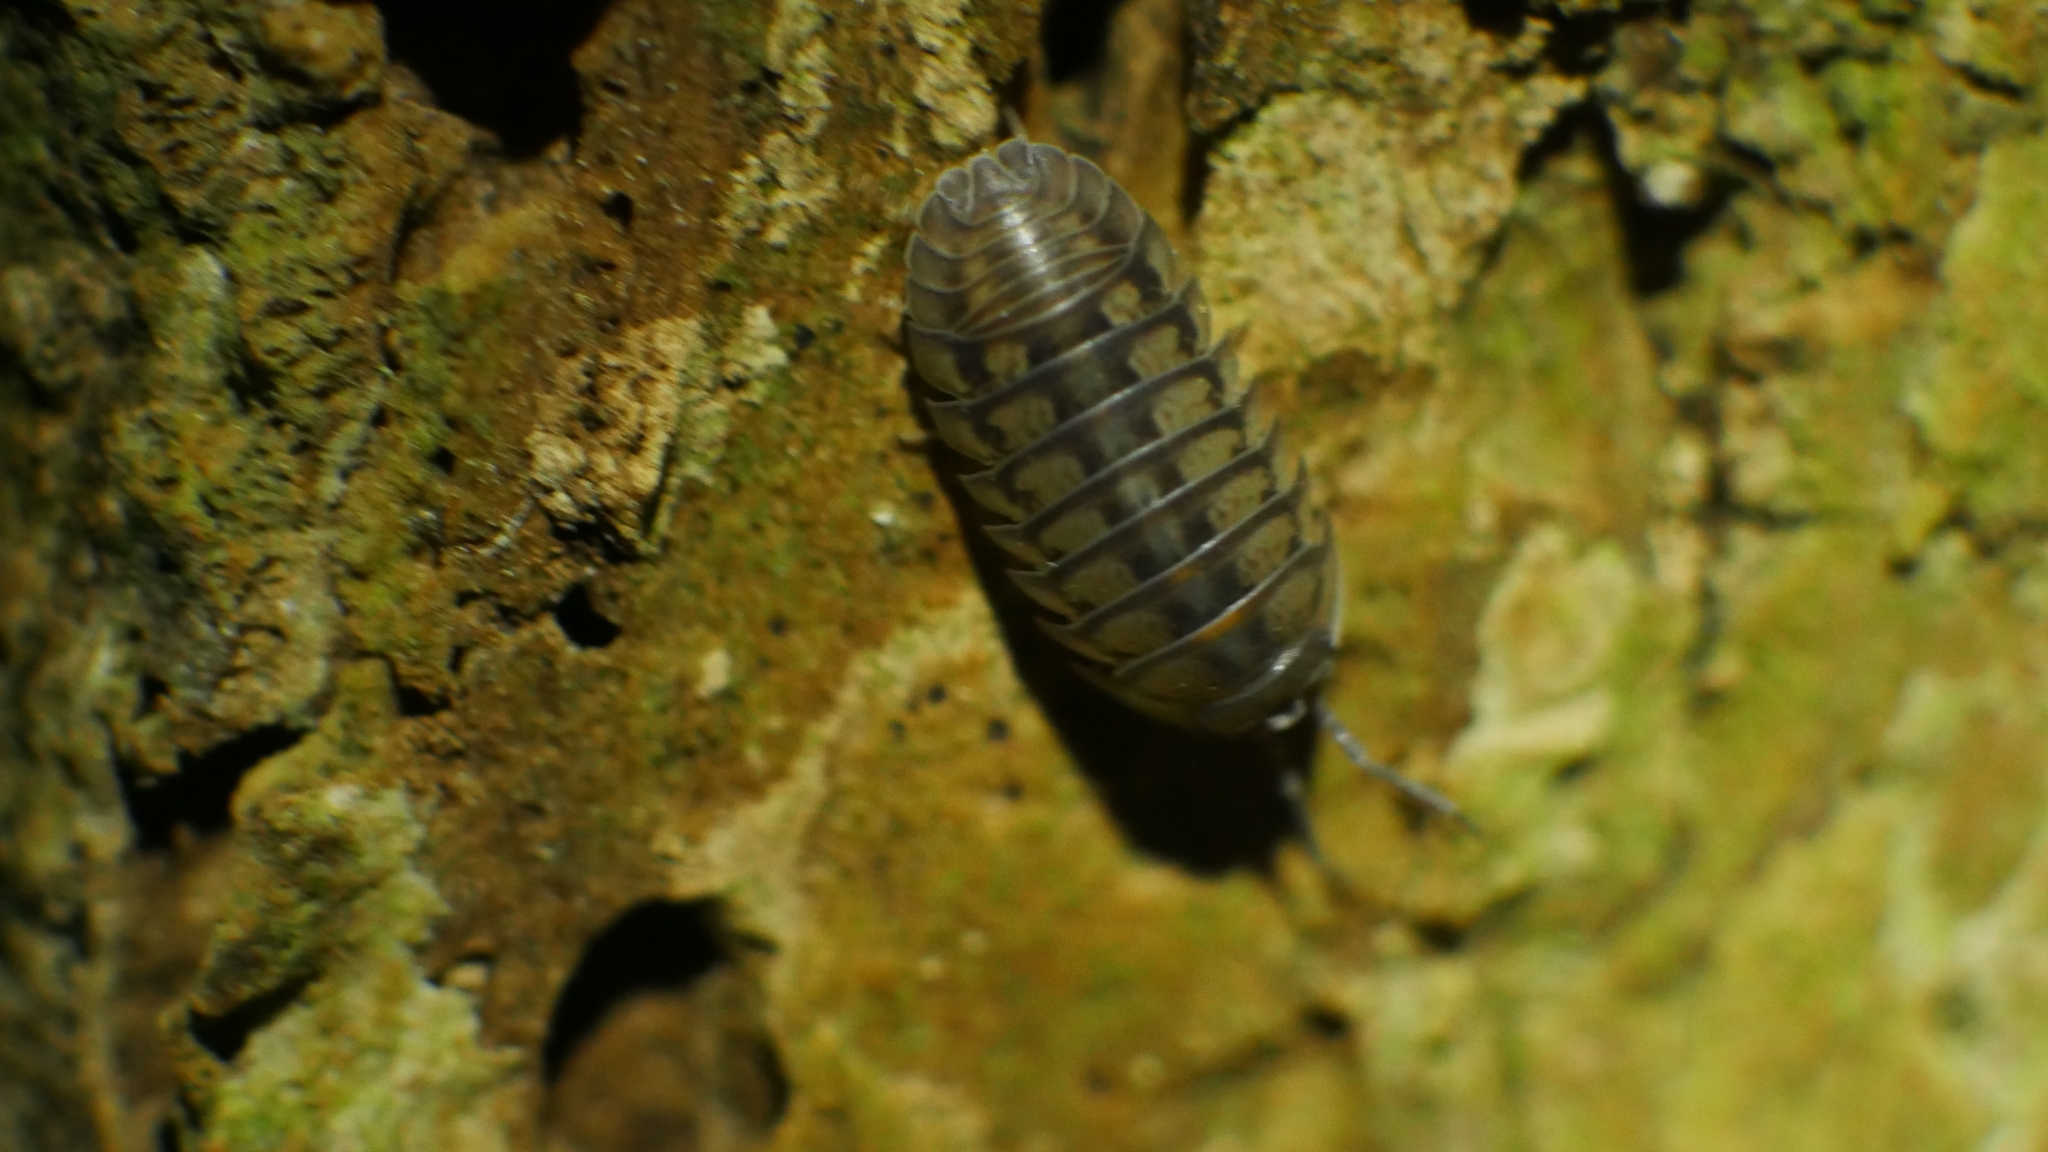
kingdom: Animalia
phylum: Arthropoda
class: Malacostraca
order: Isopoda
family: Armadillidiidae
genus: Armadillidium
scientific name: Armadillidium nasatum
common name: Isopod
